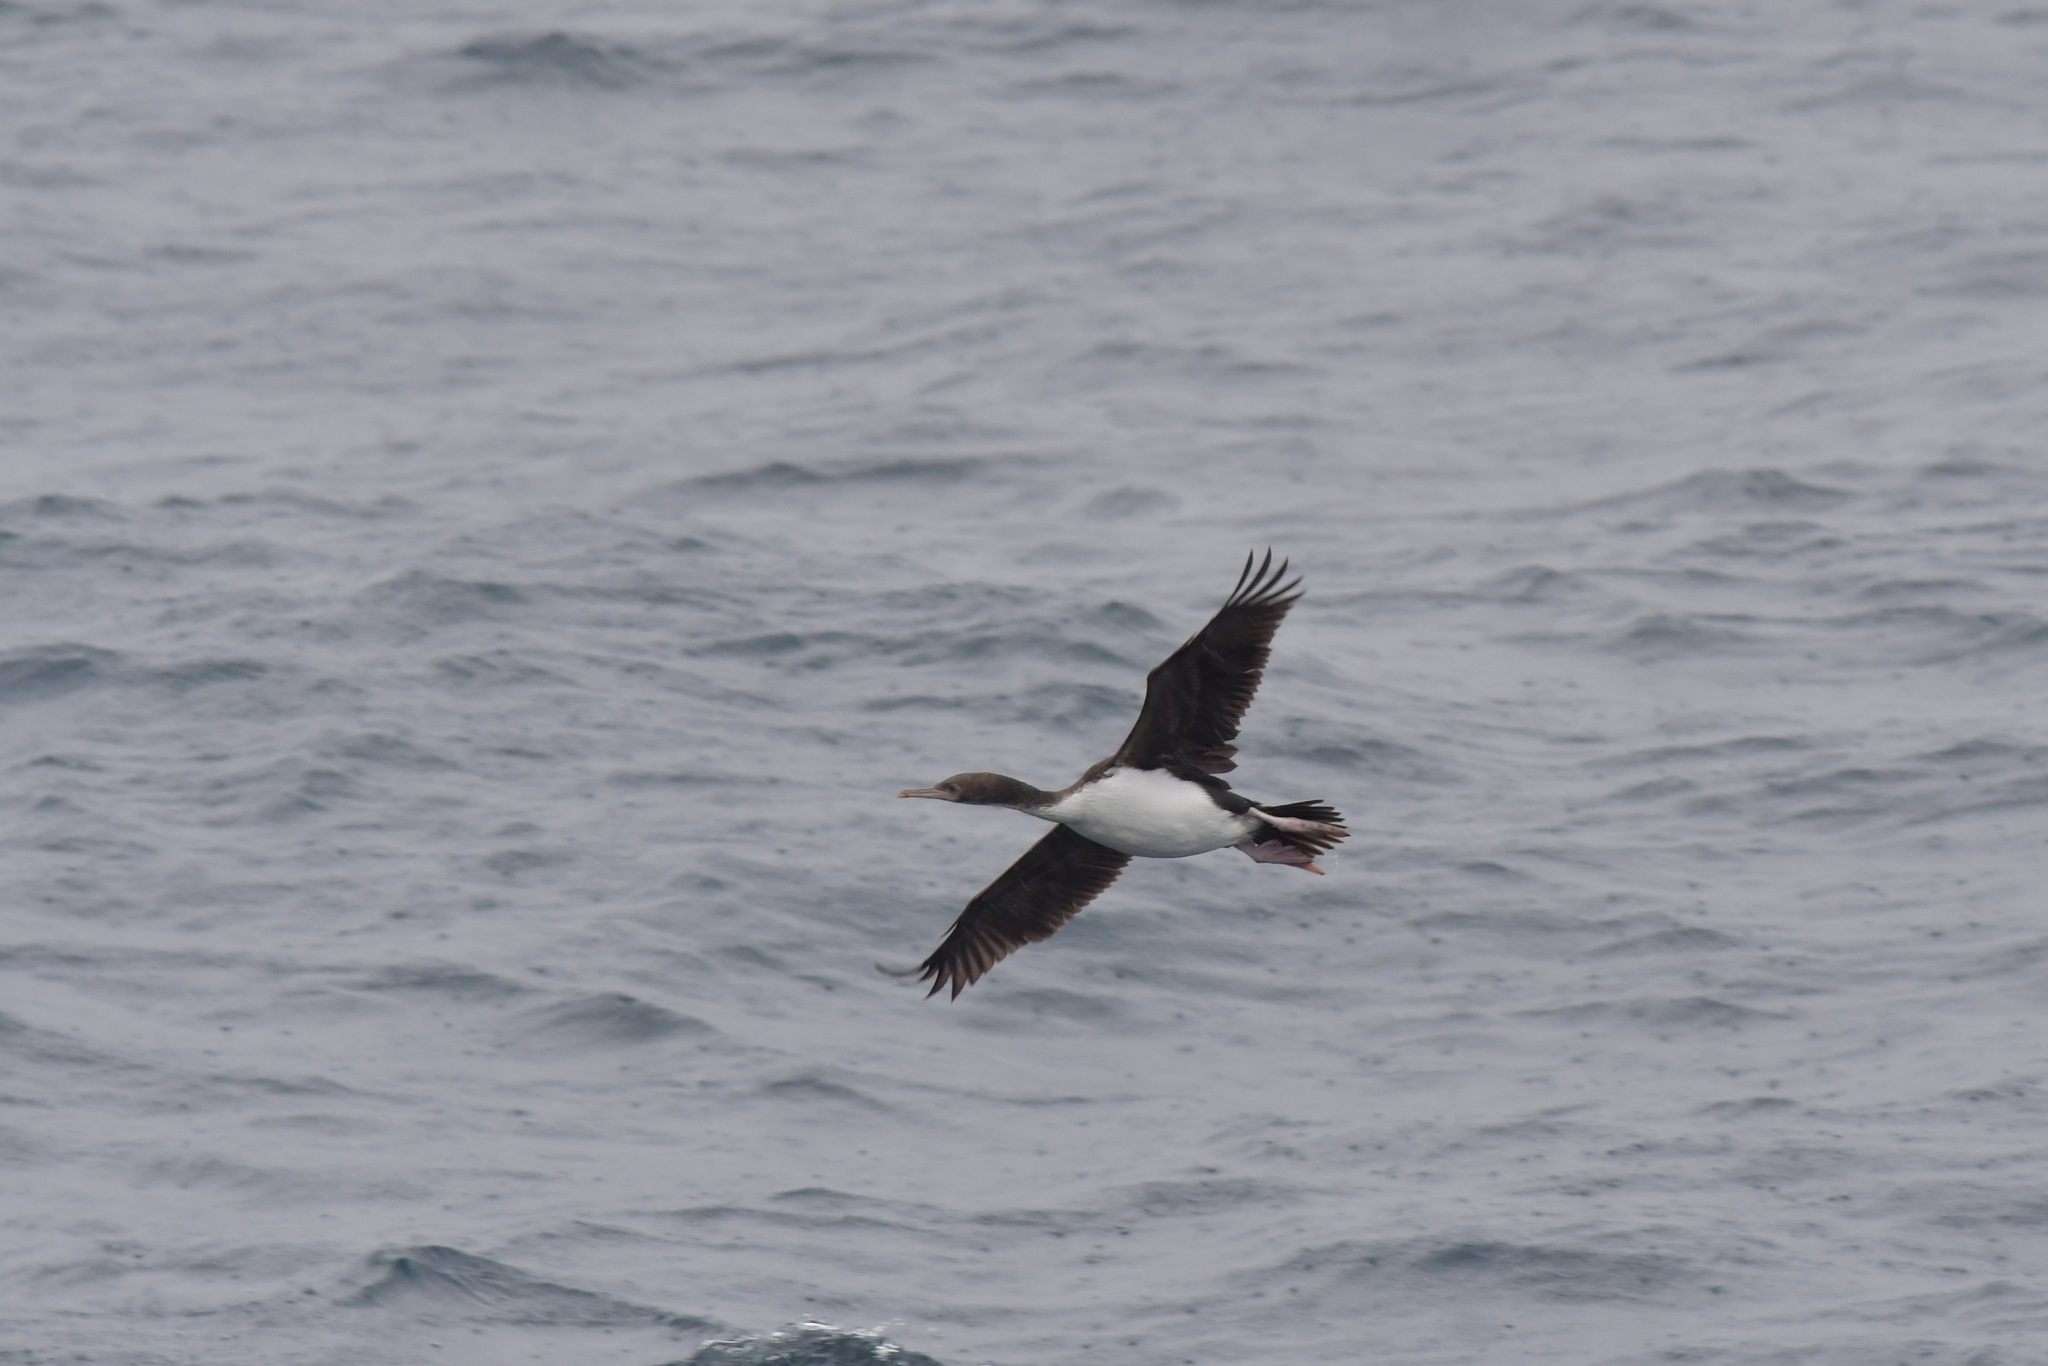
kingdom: Animalia
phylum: Chordata
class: Aves
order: Suliformes
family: Phalacrocoracidae
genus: Leucocarbo
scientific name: Leucocarbo ranfurlyi
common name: Bounty shag
